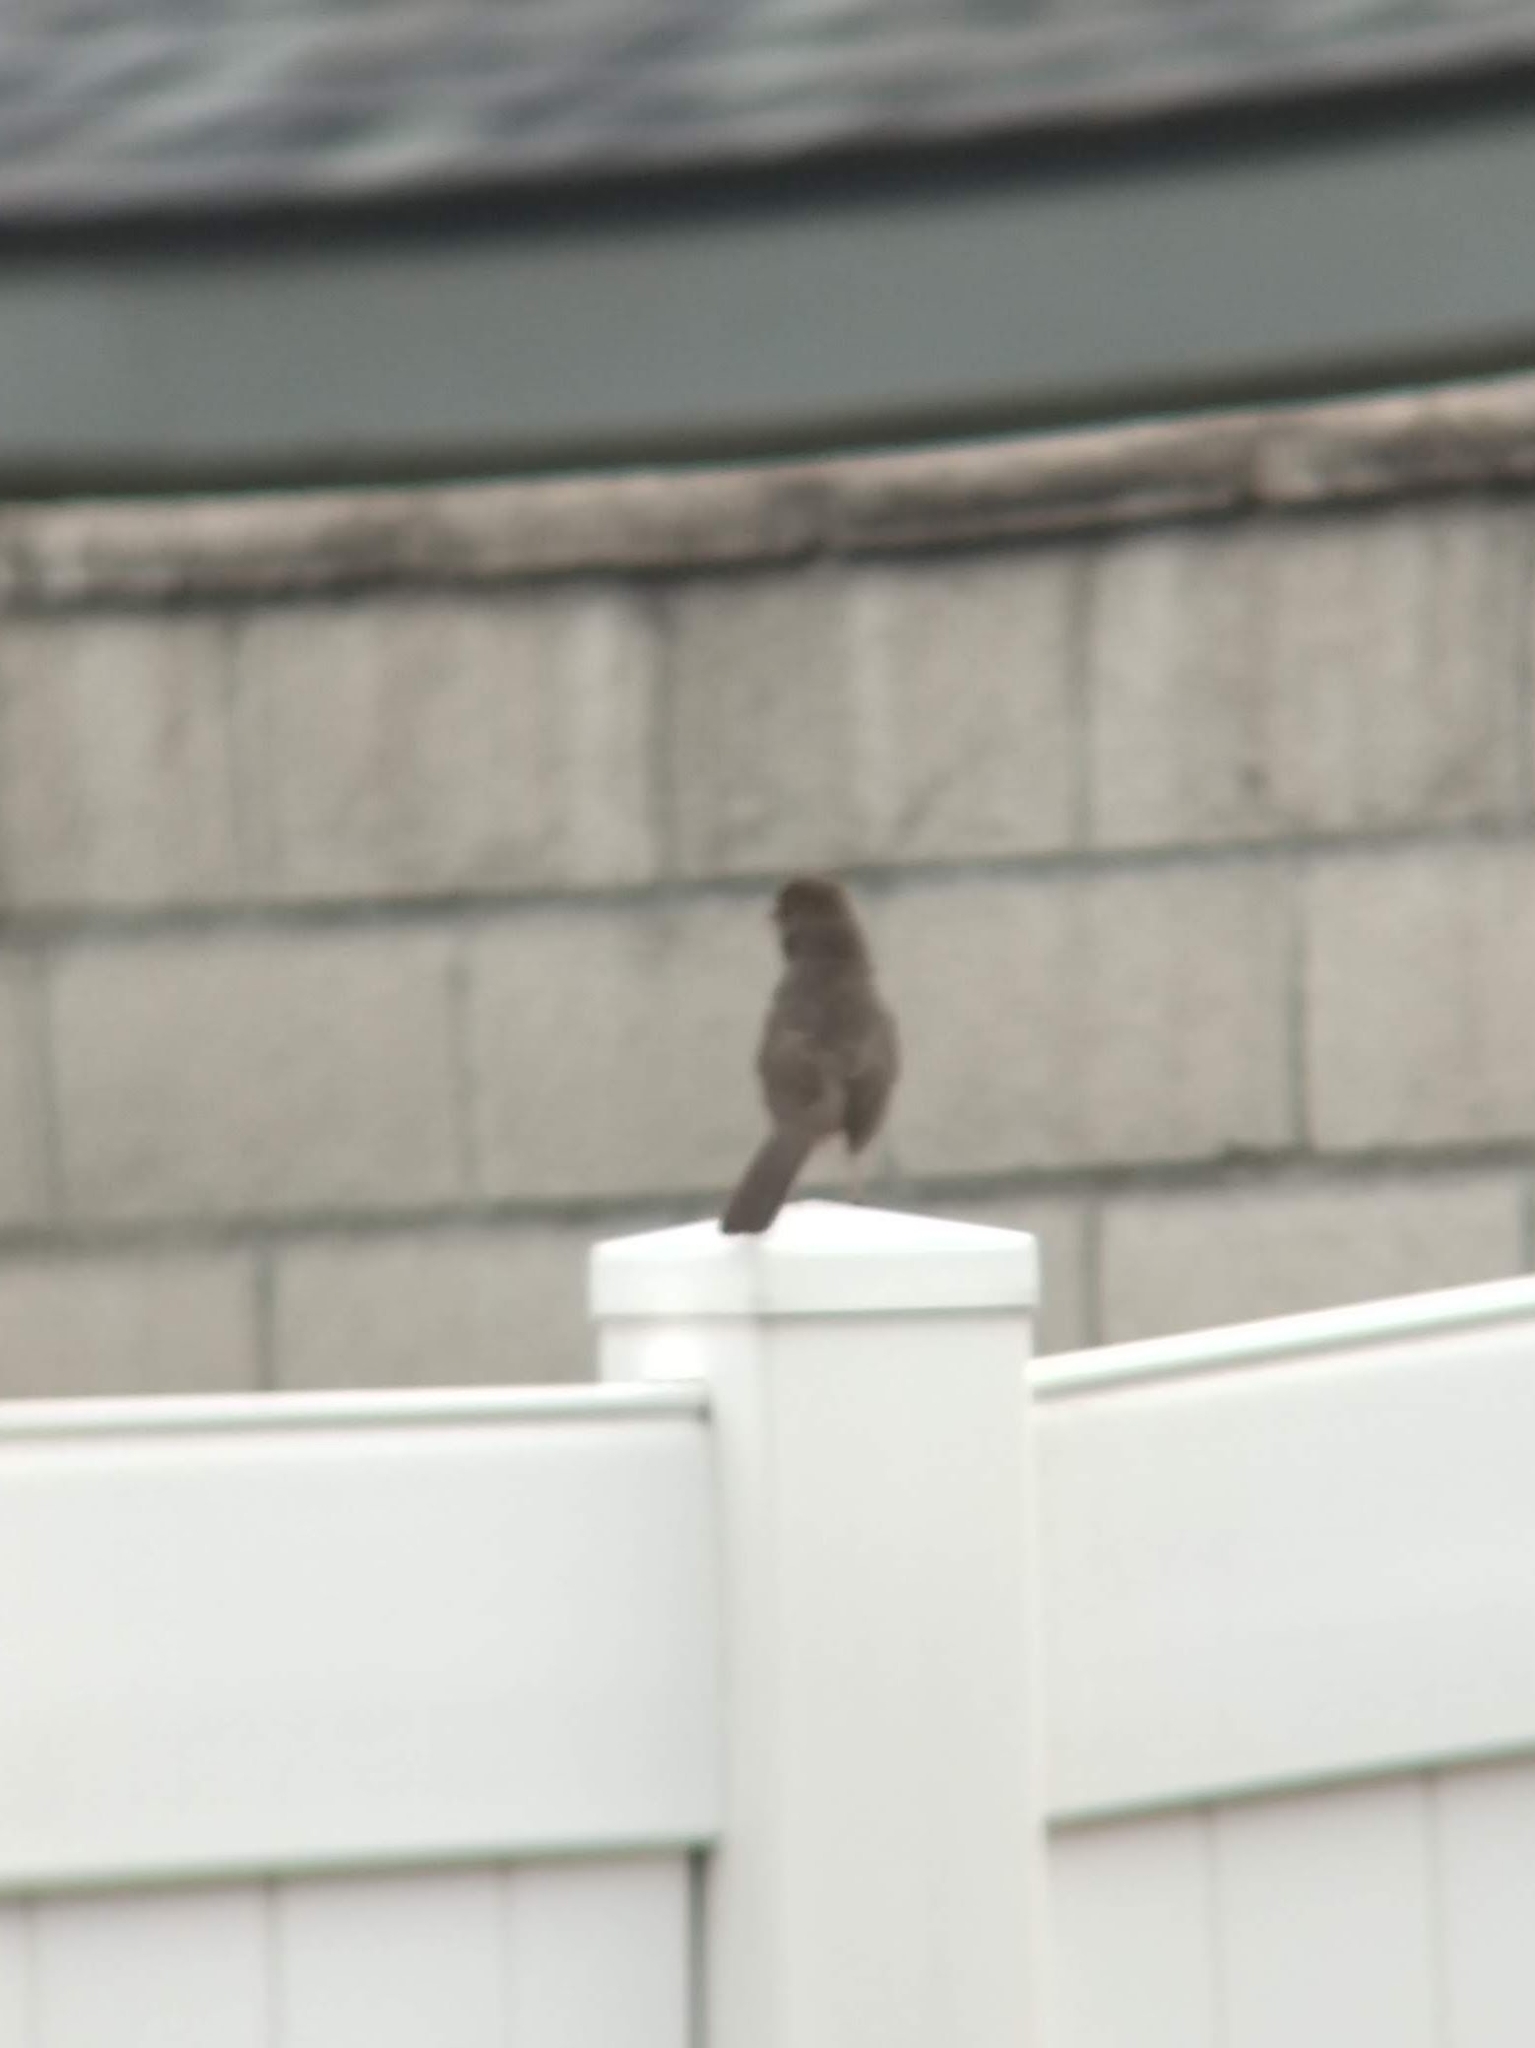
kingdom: Animalia
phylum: Chordata
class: Aves
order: Passeriformes
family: Passerellidae
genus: Melozone
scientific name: Melozone crissalis
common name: California towhee
